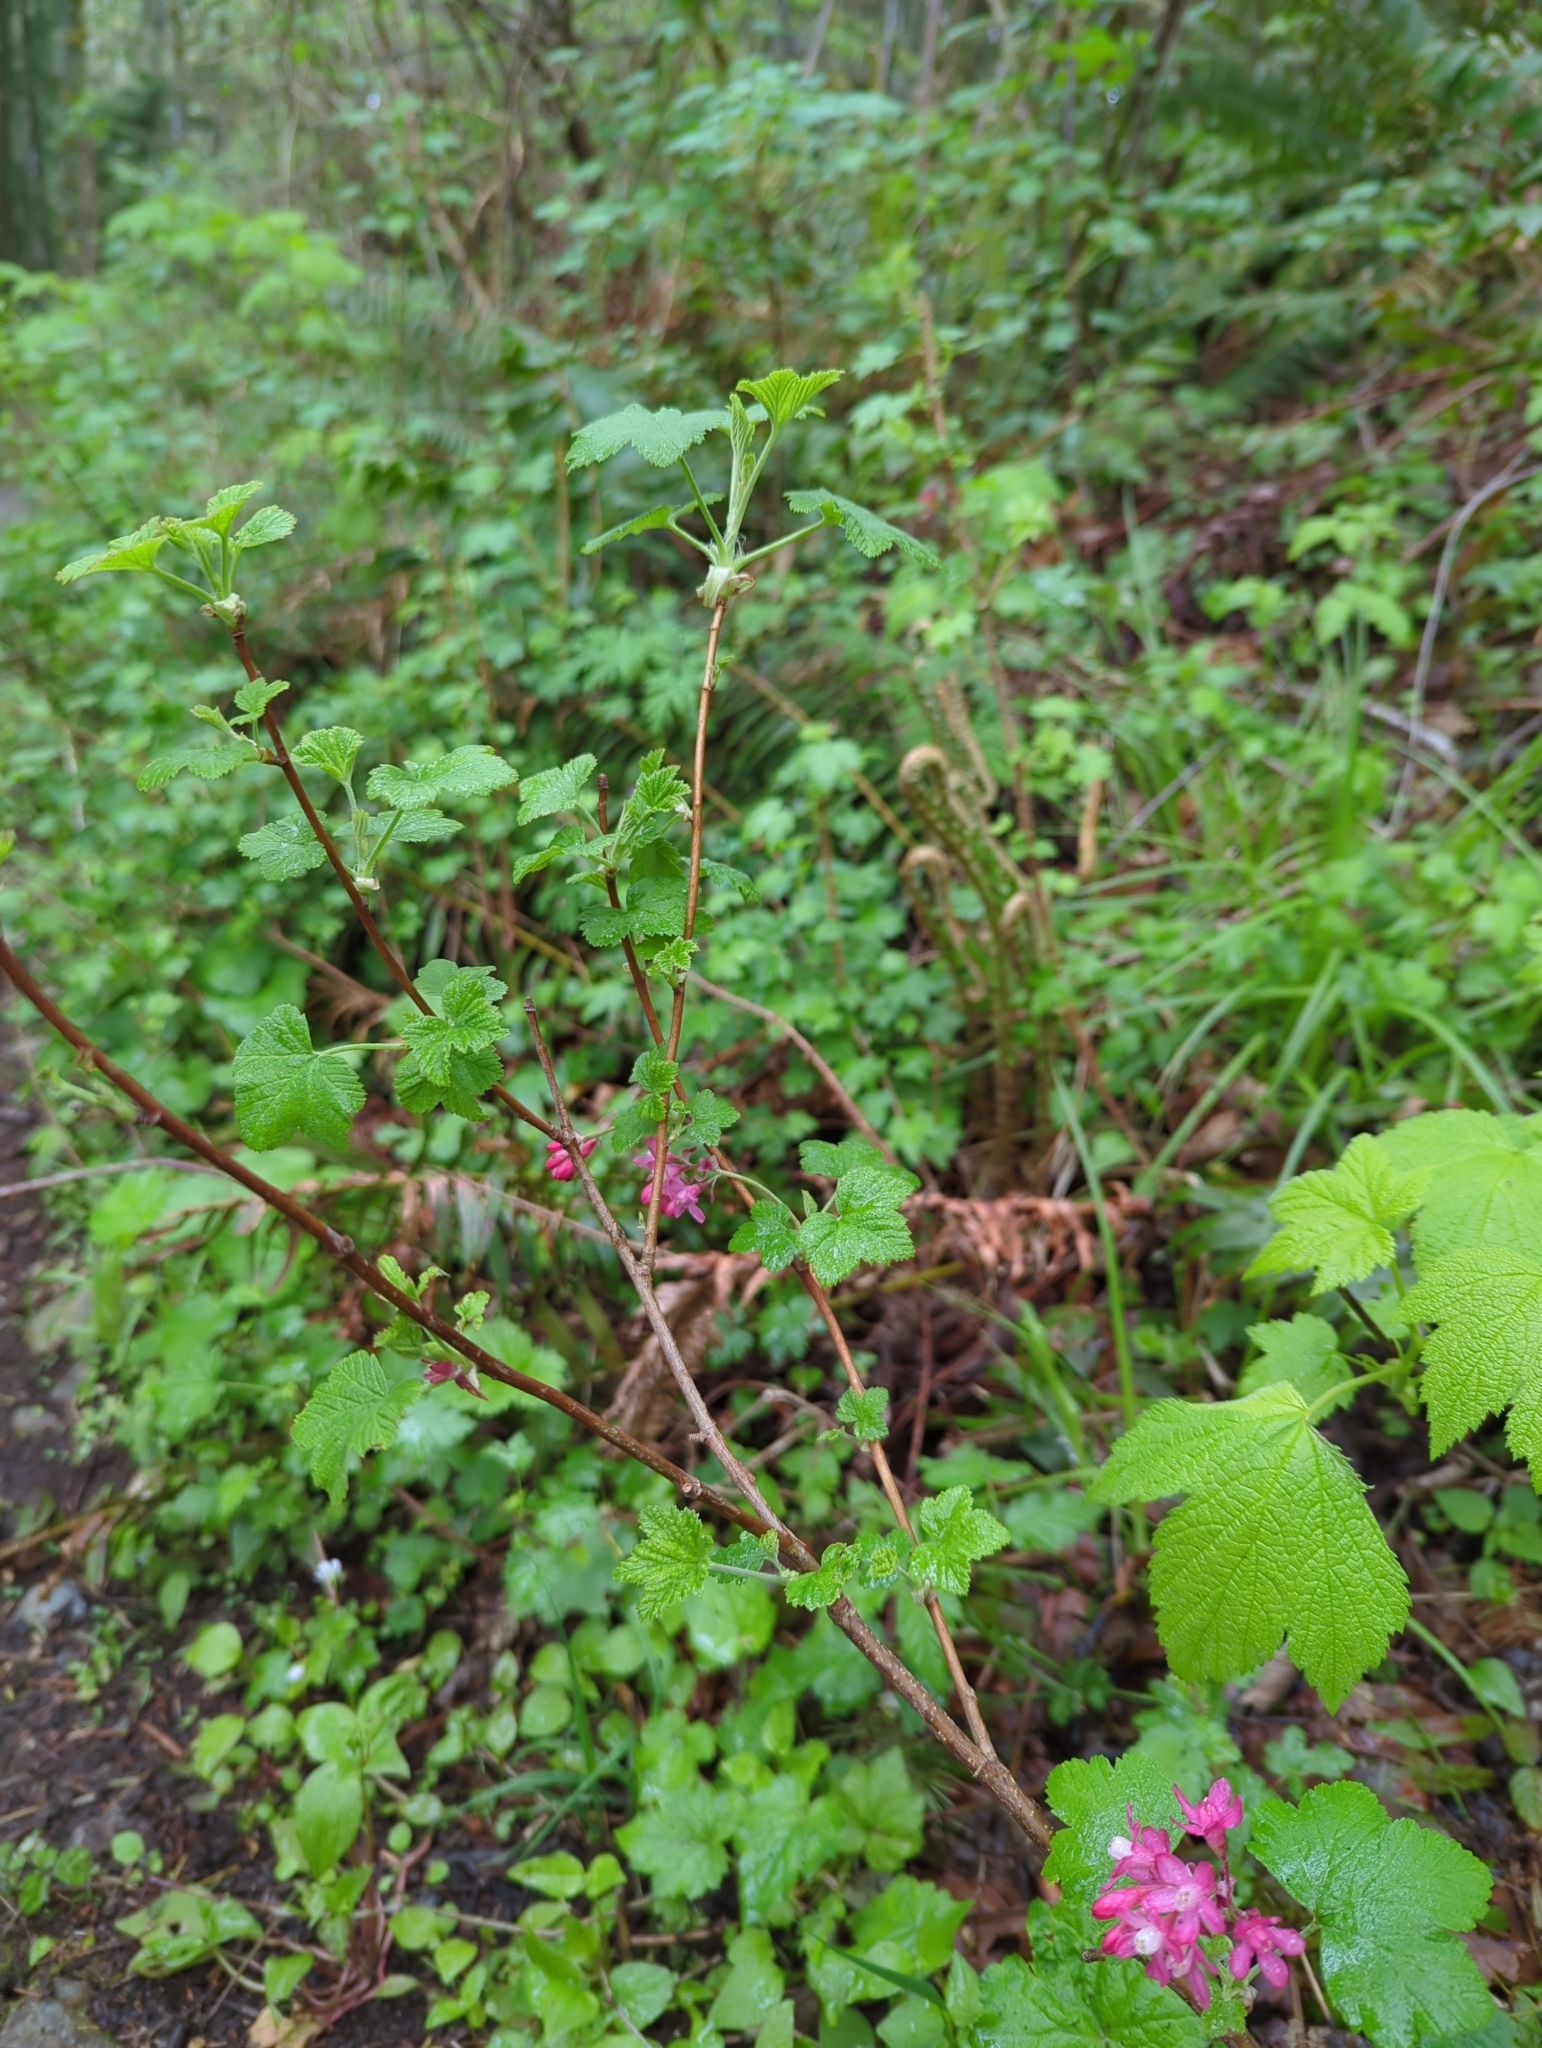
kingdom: Plantae
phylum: Tracheophyta
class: Magnoliopsida
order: Saxifragales
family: Grossulariaceae
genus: Ribes
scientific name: Ribes sanguineum
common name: Flowering currant
